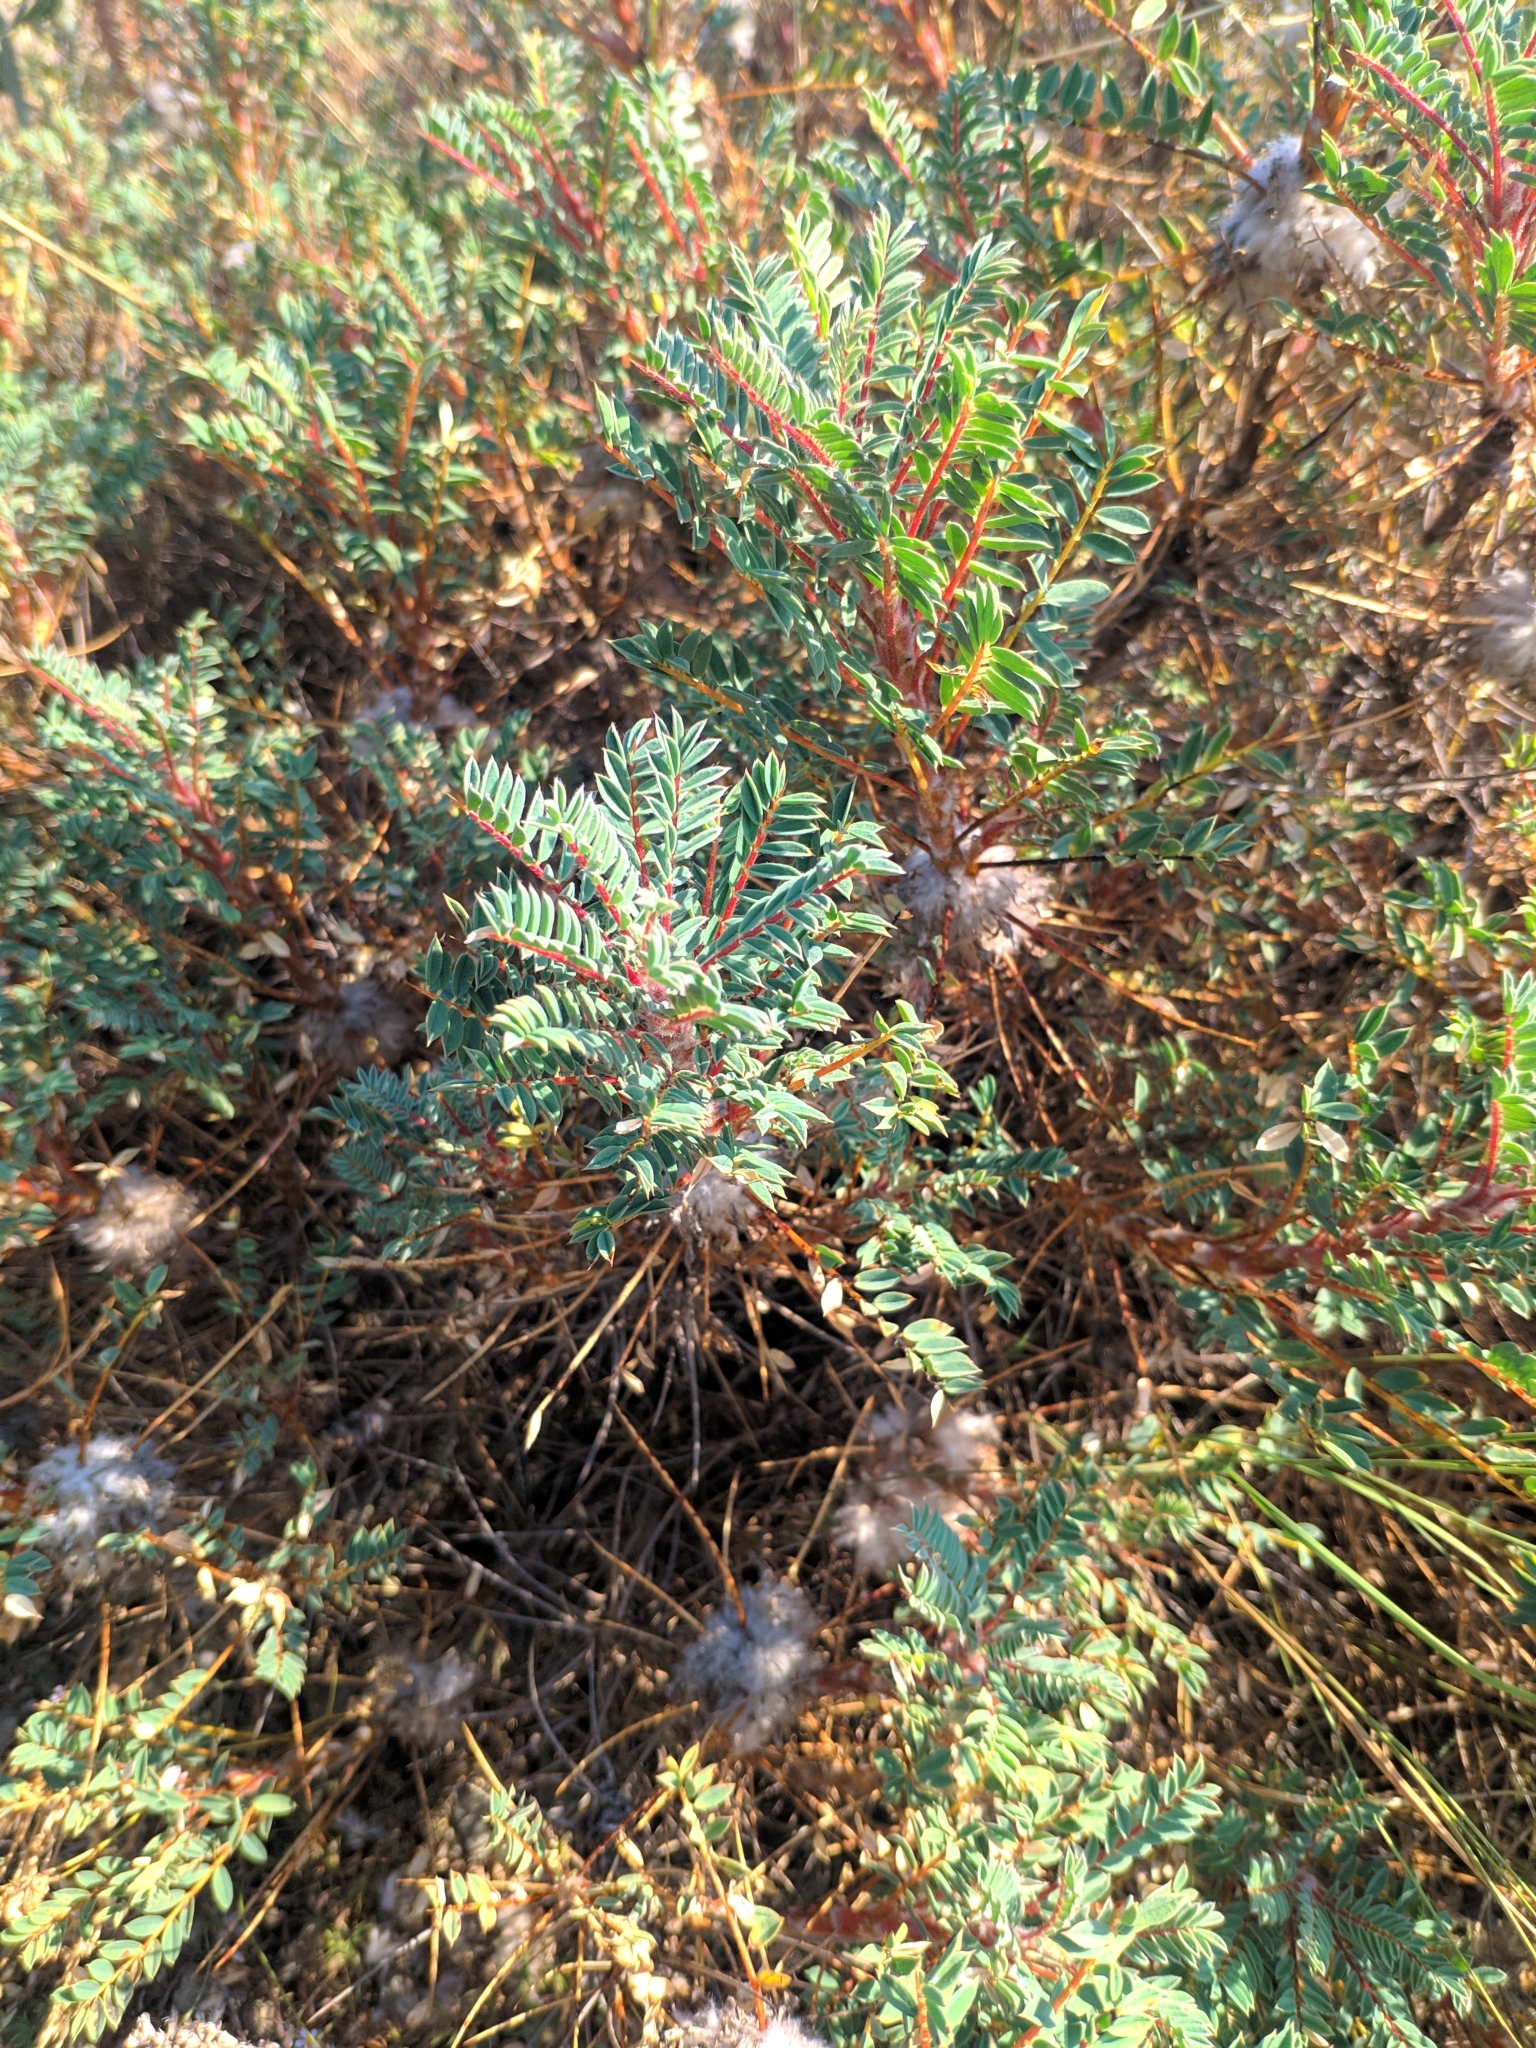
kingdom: Plantae
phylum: Tracheophyta
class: Magnoliopsida
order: Fabales
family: Fabaceae
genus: Astragalus
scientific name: Astragalus parnassi
